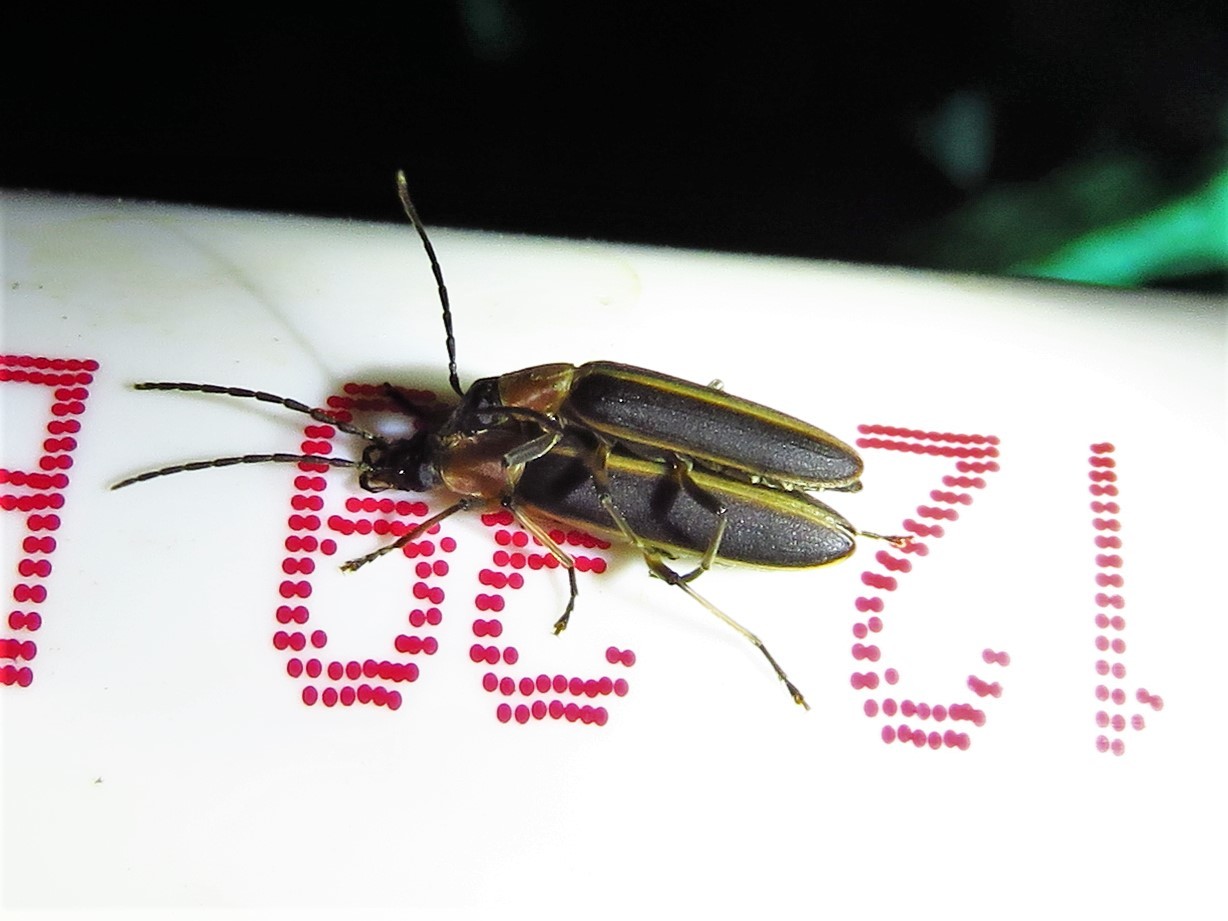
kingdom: Animalia
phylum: Arthropoda
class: Insecta
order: Coleoptera
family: Oedemeridae
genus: Oxycopis
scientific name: Oxycopis mimetica
